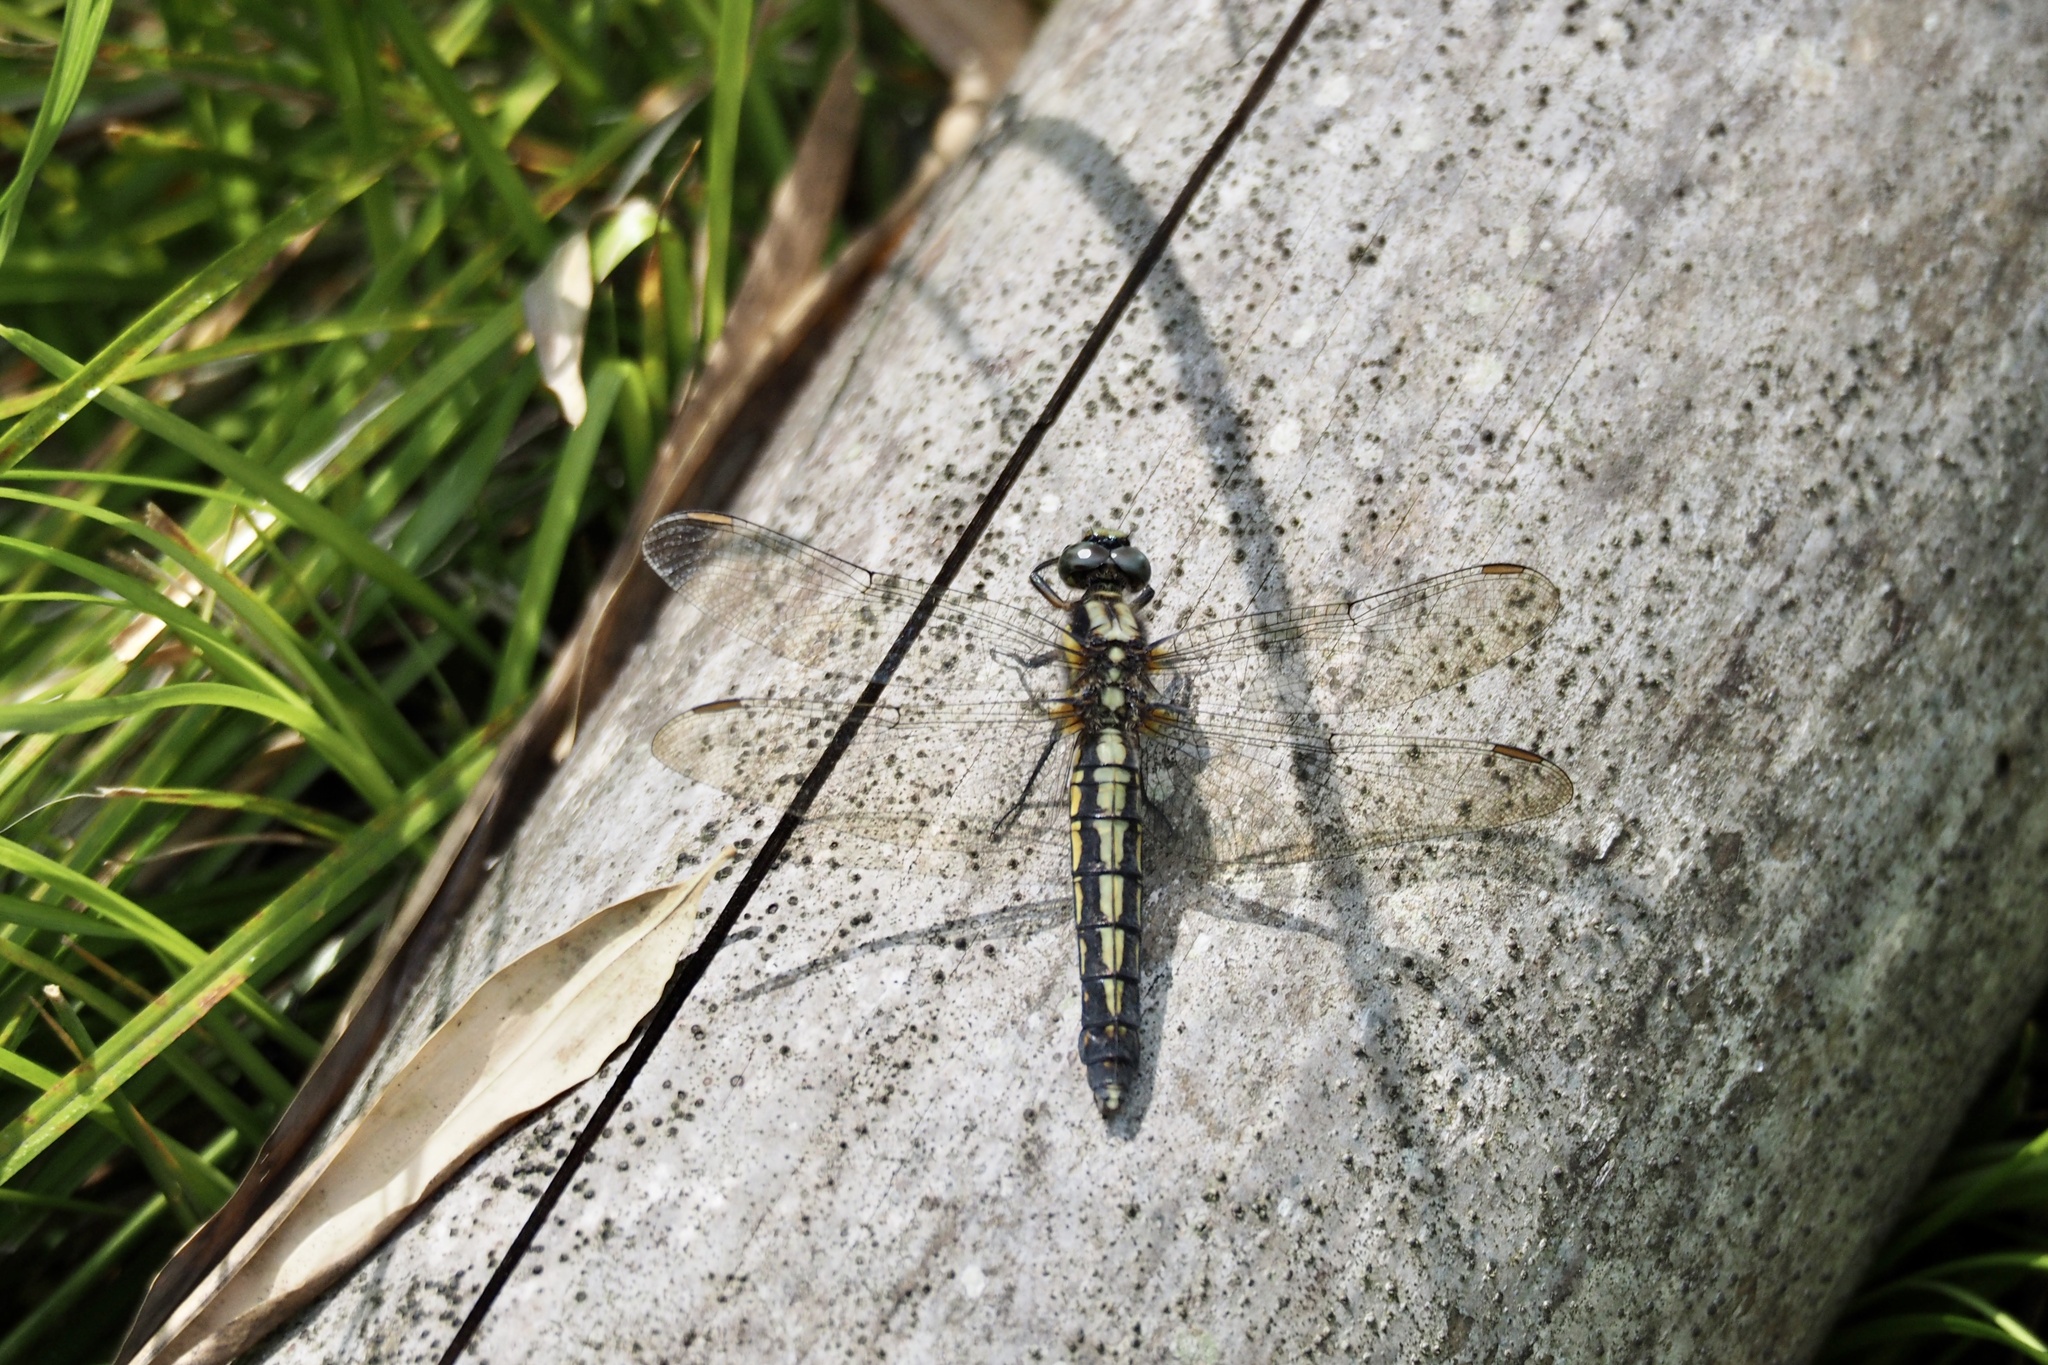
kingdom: Animalia
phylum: Arthropoda
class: Insecta
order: Odonata
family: Libellulidae
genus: Orthetrum
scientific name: Orthetrum japonicum
